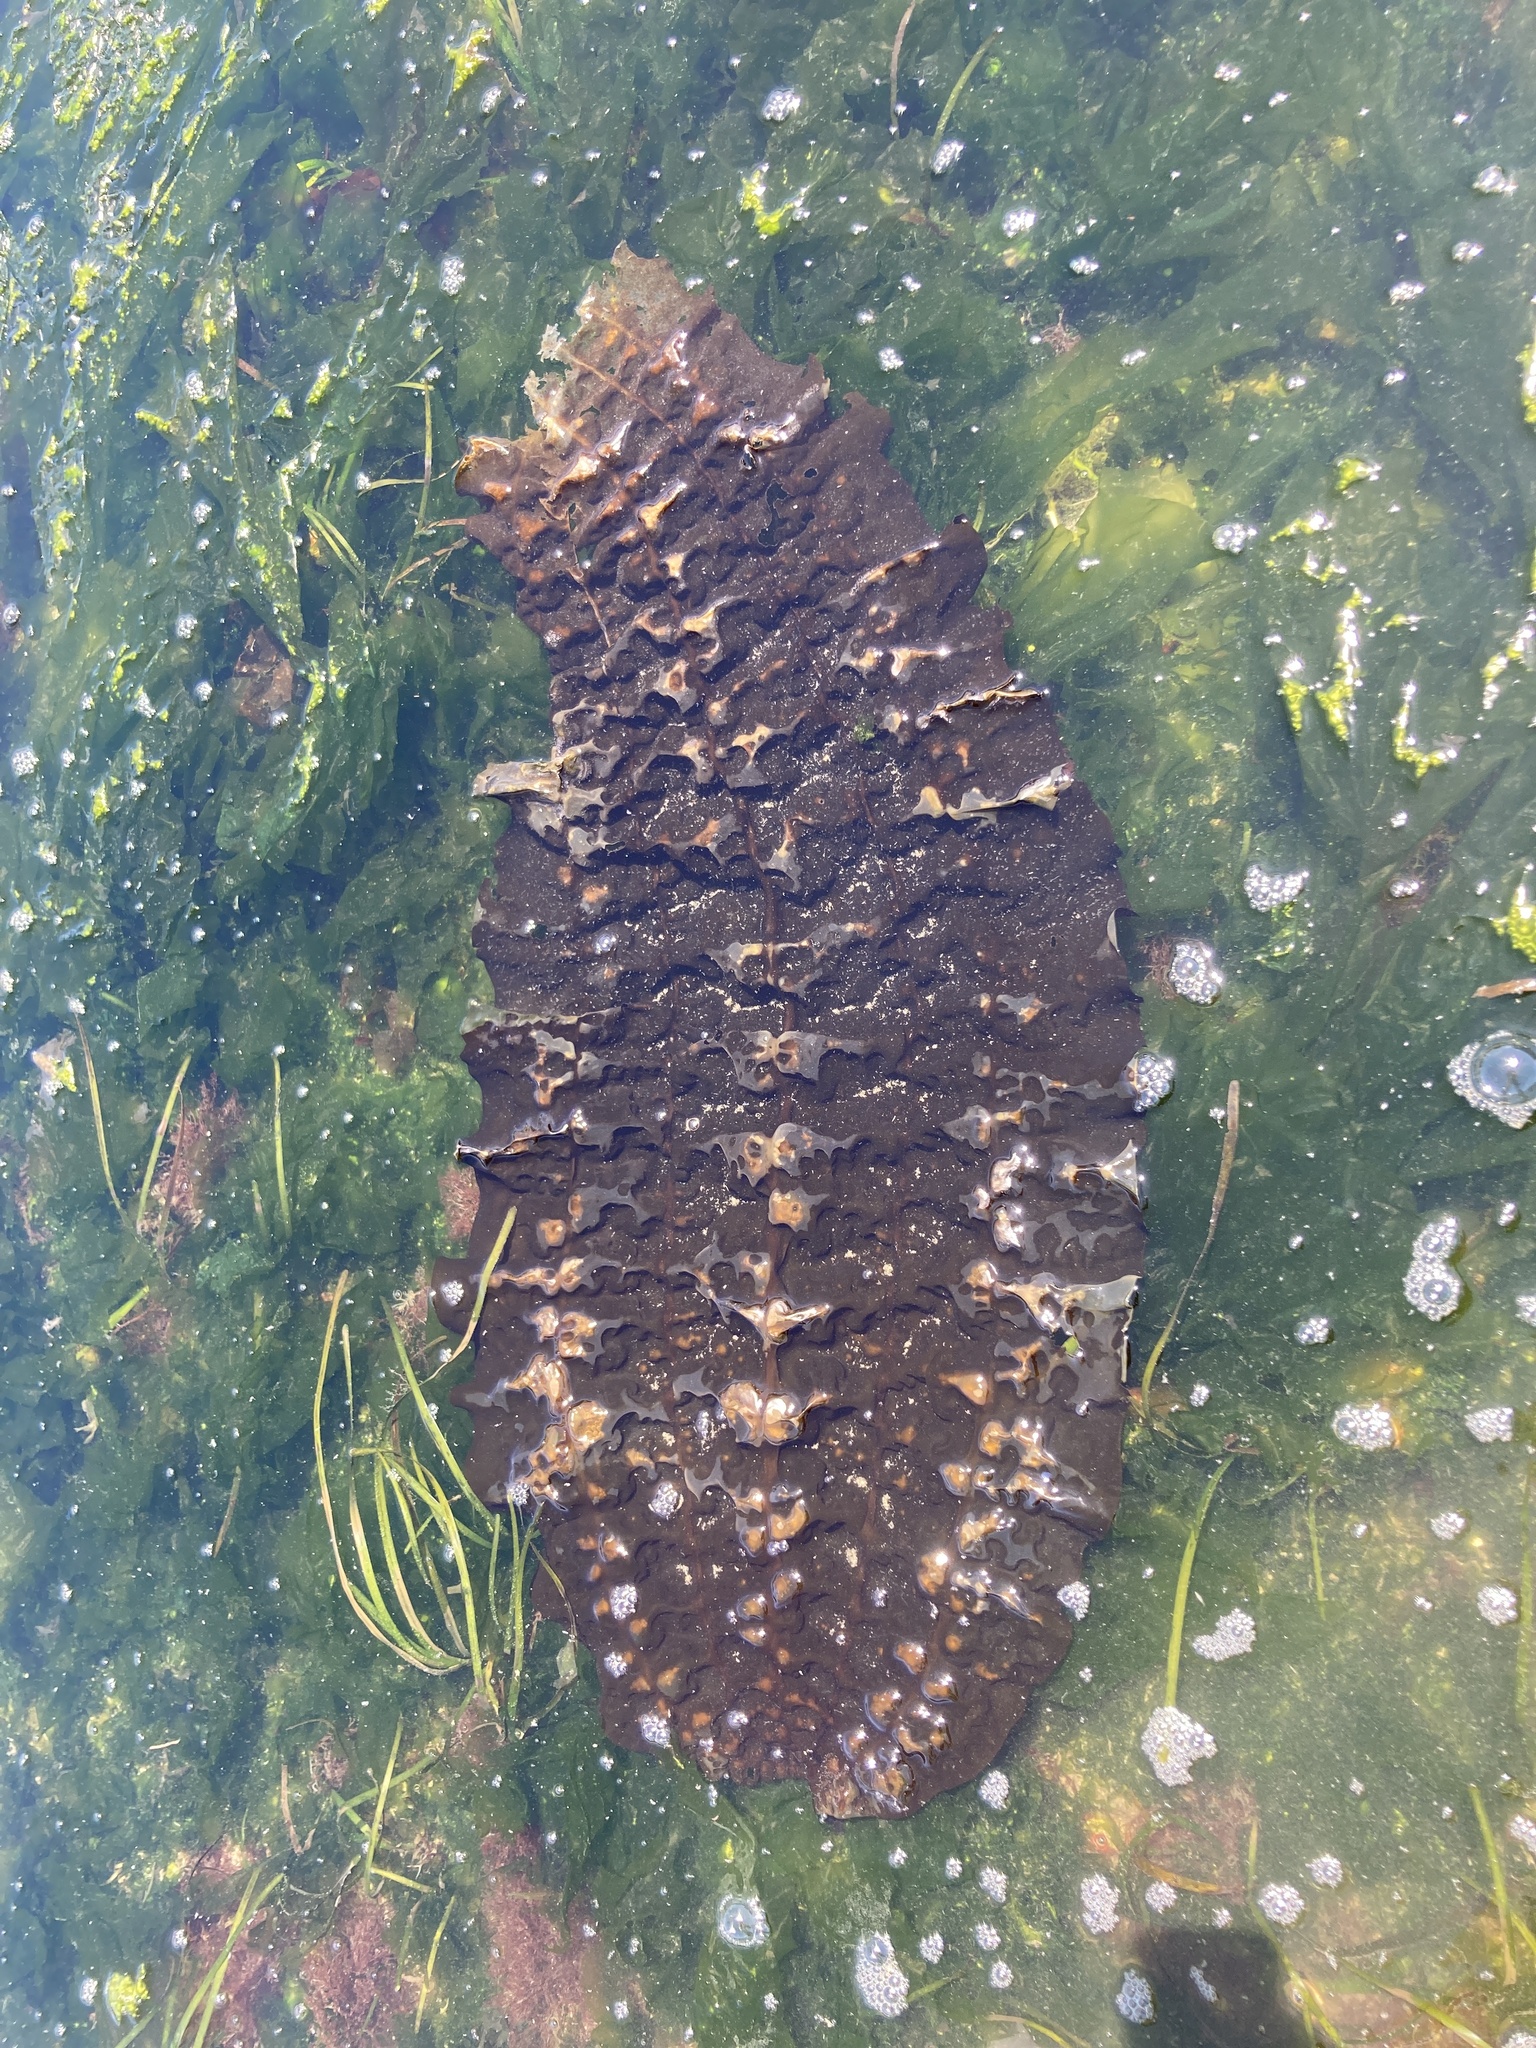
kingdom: Chromista
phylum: Ochrophyta
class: Phaeophyceae
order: Laminariales
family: Costariaceae
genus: Costaria
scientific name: Costaria costata
